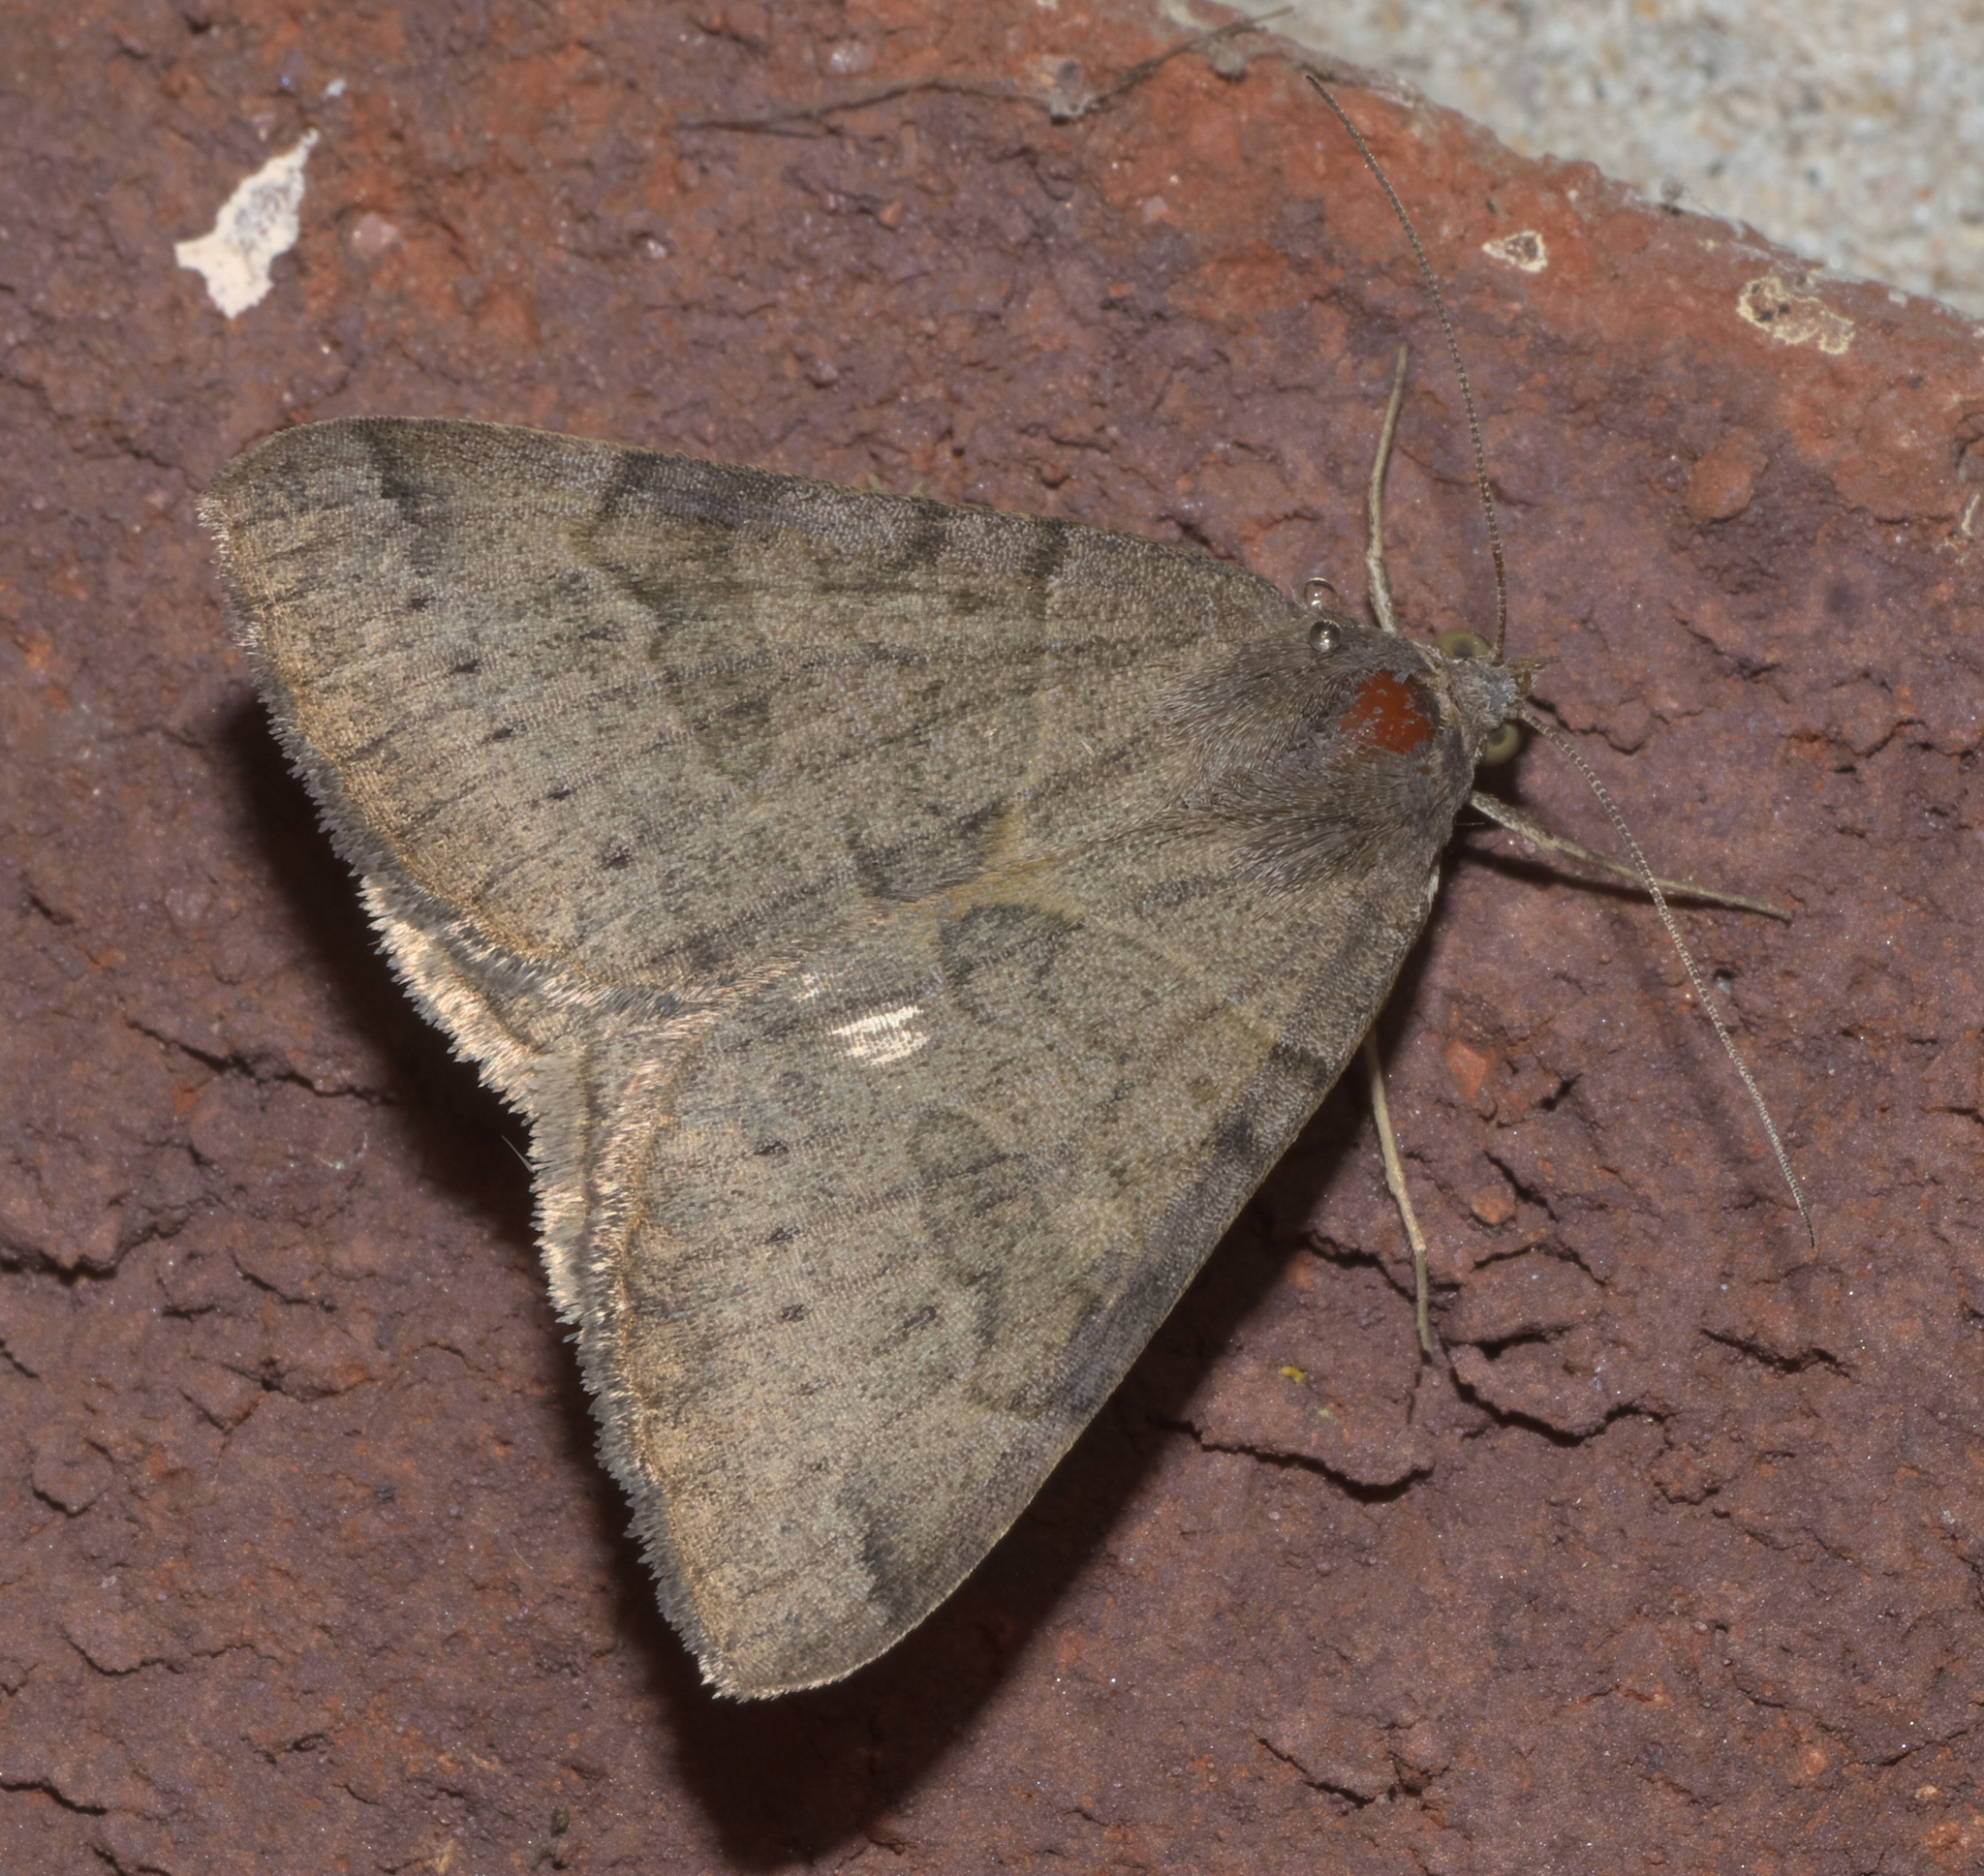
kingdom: Animalia
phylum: Arthropoda
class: Insecta
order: Lepidoptera
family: Erebidae
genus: Caenurgina
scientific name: Caenurgina erechtea
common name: Forage looper moth
